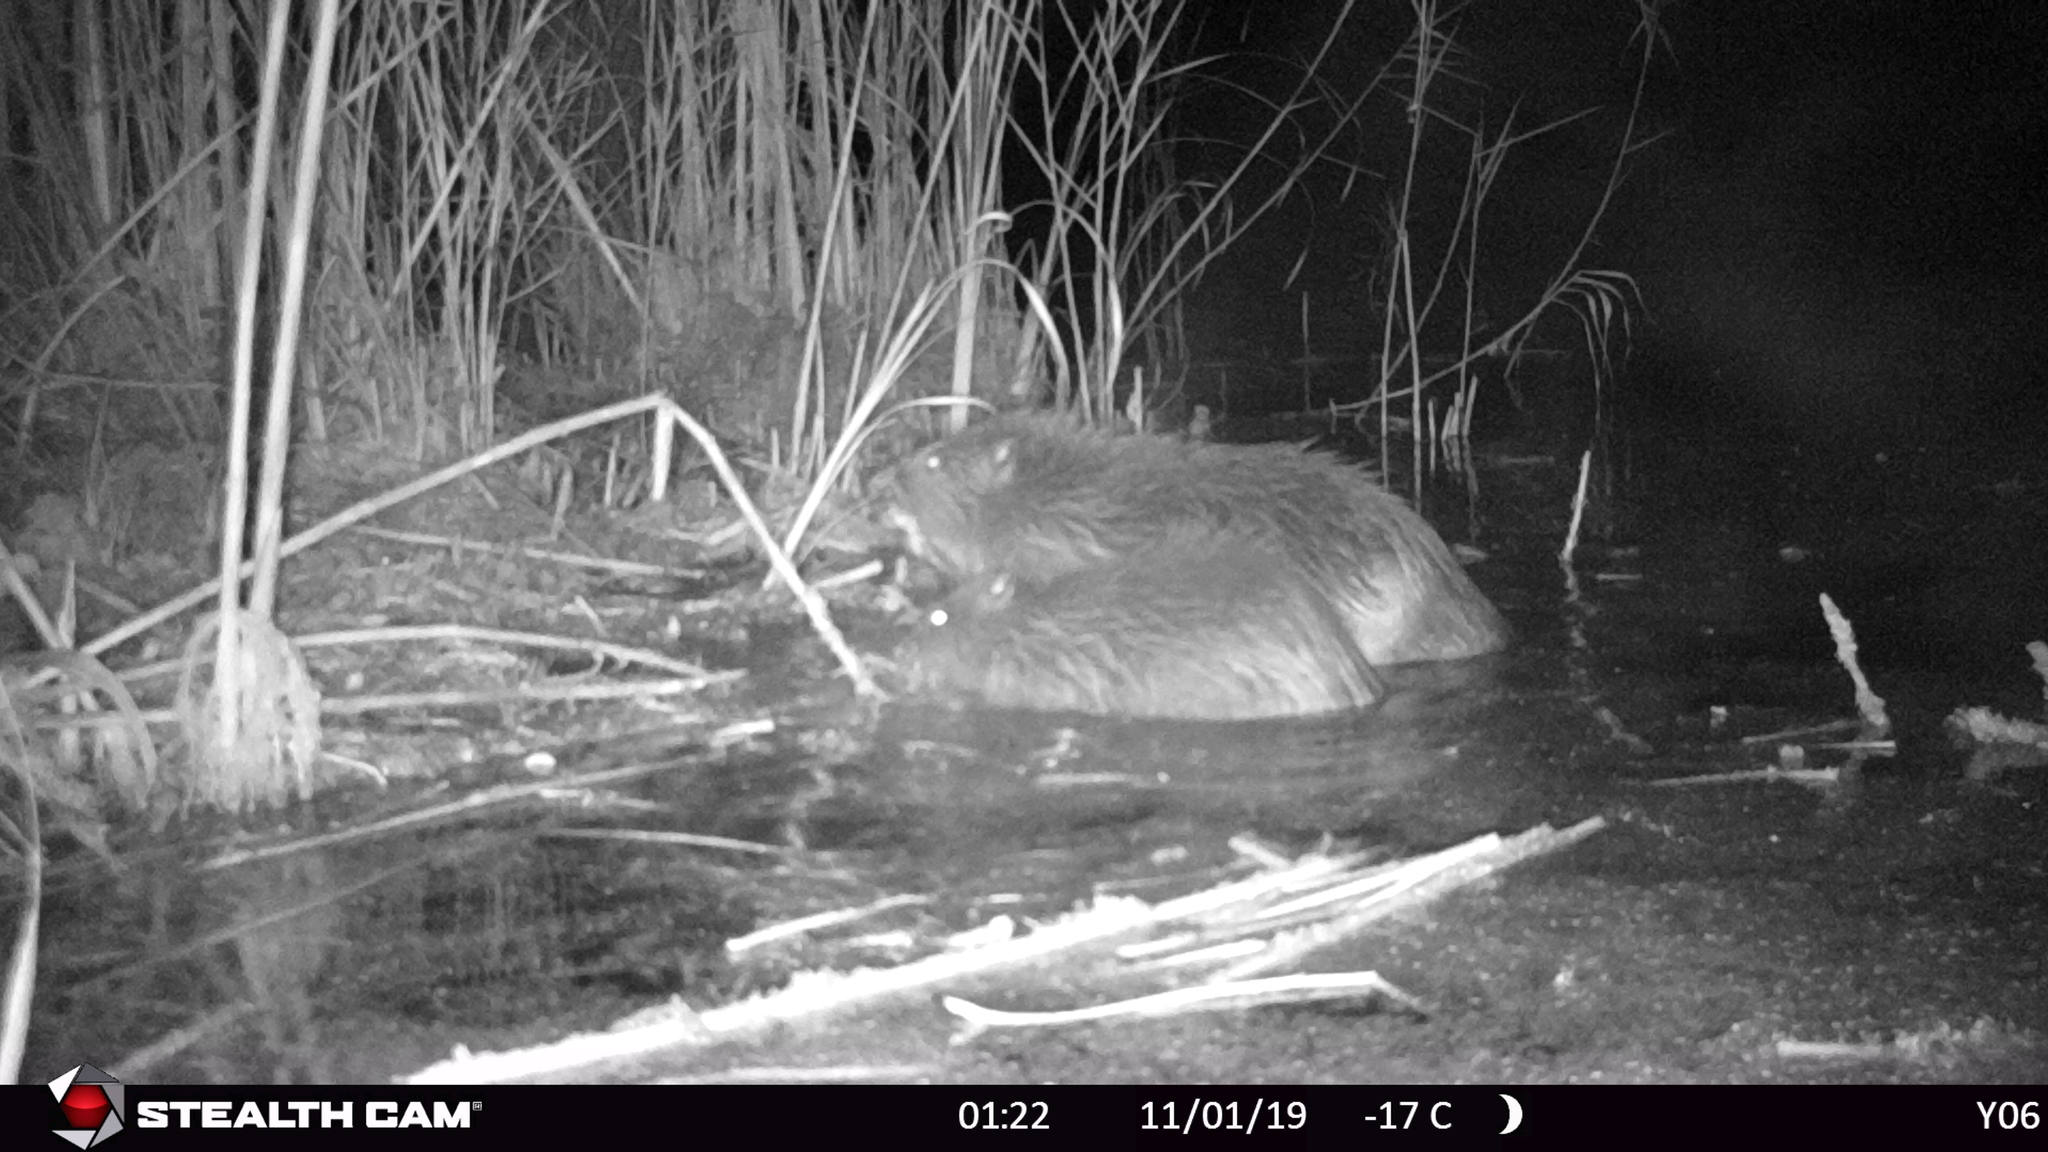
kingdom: Animalia
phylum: Chordata
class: Mammalia
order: Rodentia
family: Castoridae
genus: Castor
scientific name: Castor fiber
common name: Eurasian beaver
